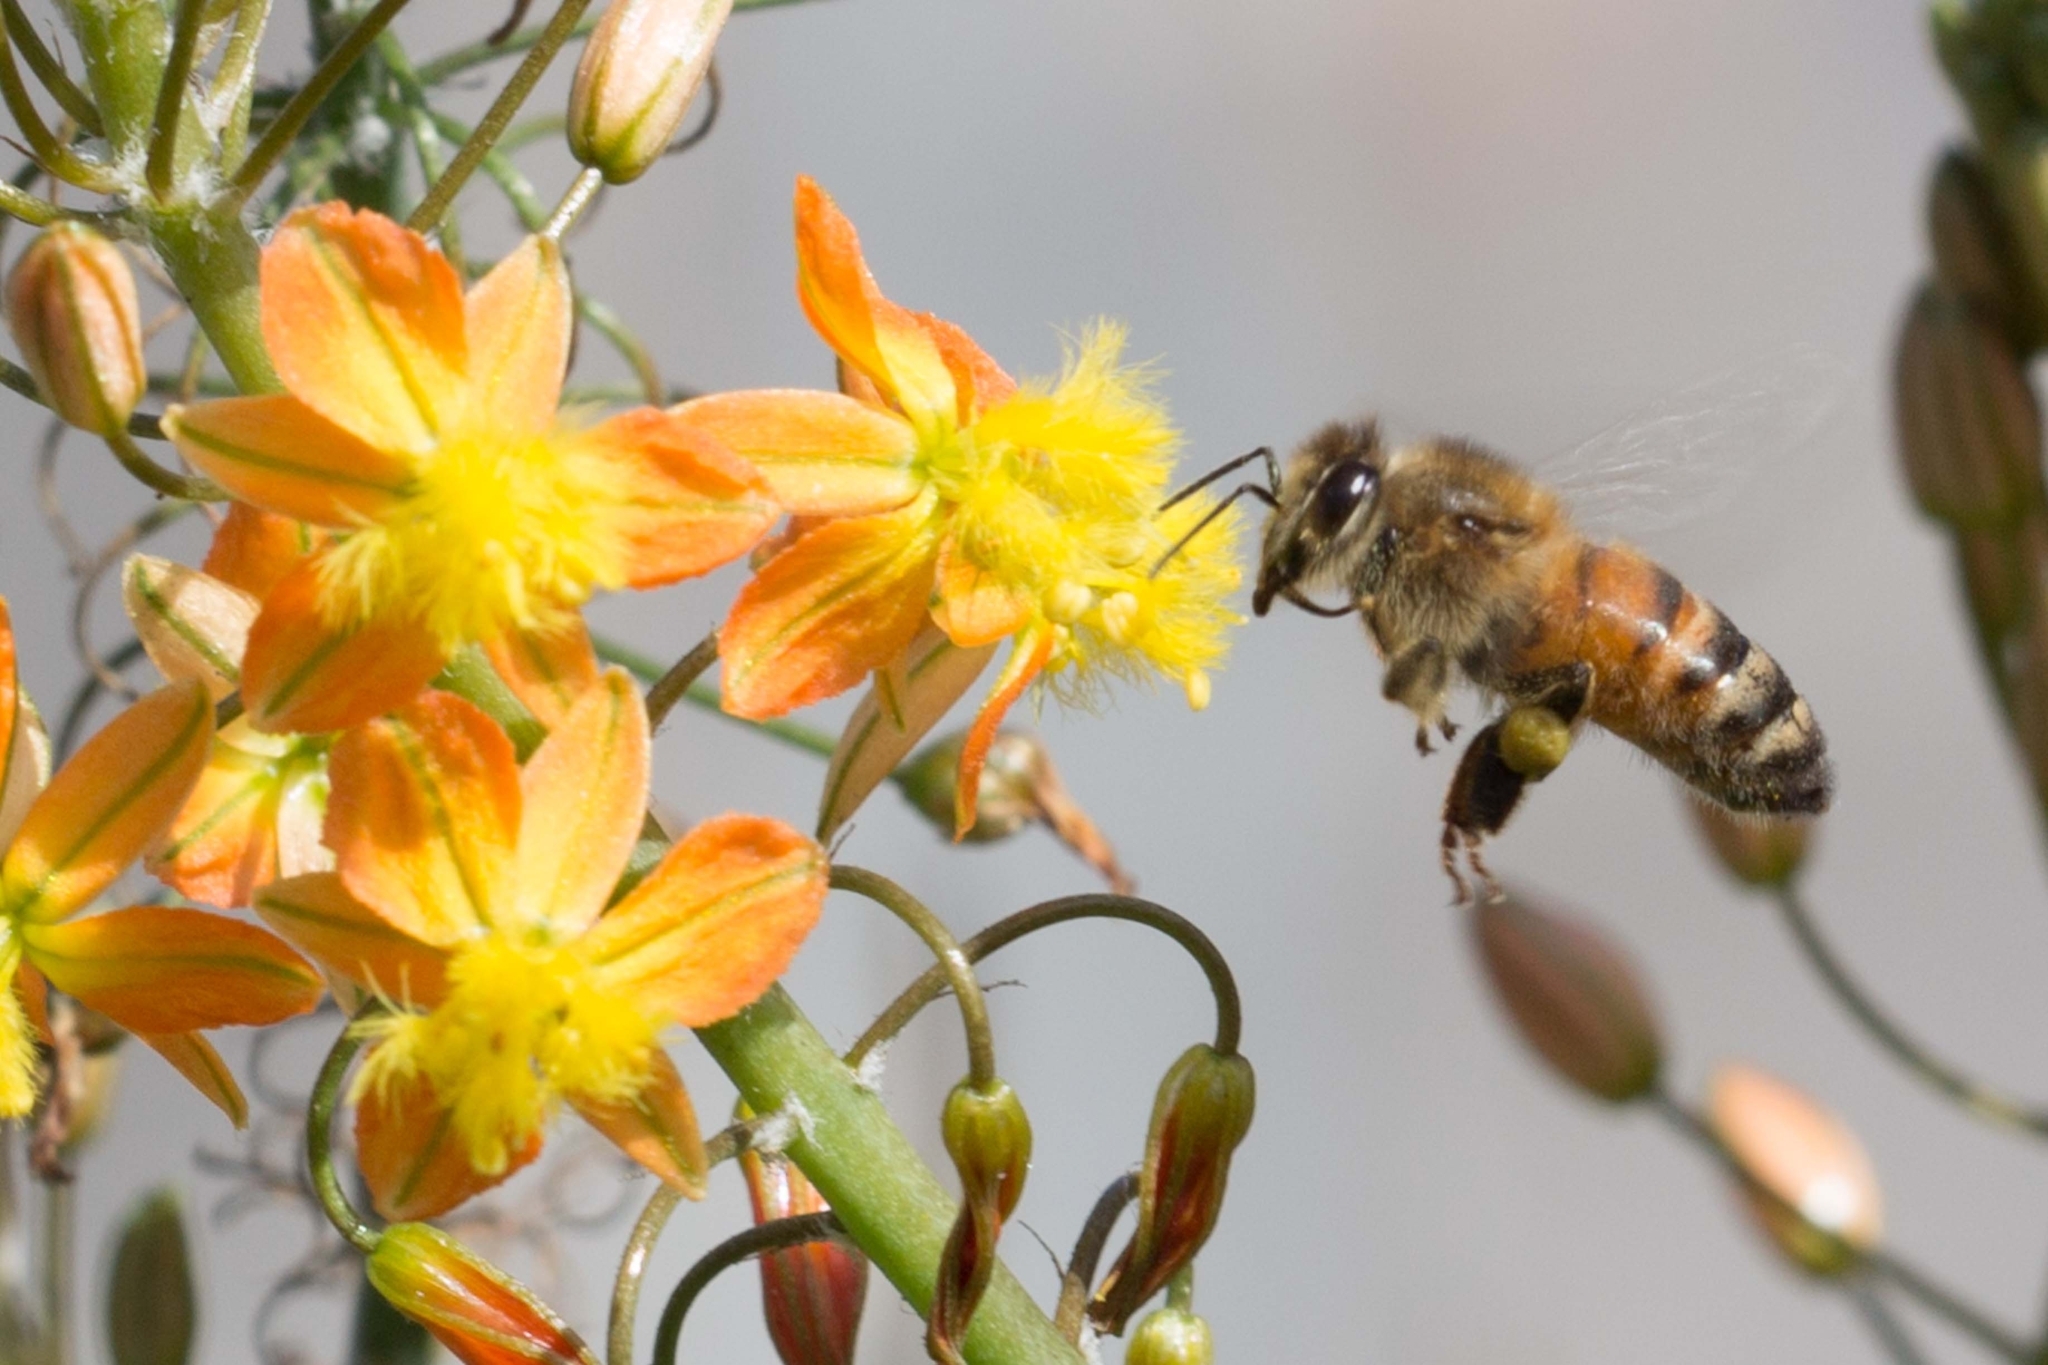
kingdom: Animalia
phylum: Arthropoda
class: Insecta
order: Hymenoptera
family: Apidae
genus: Apis
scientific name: Apis mellifera
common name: Honey bee
